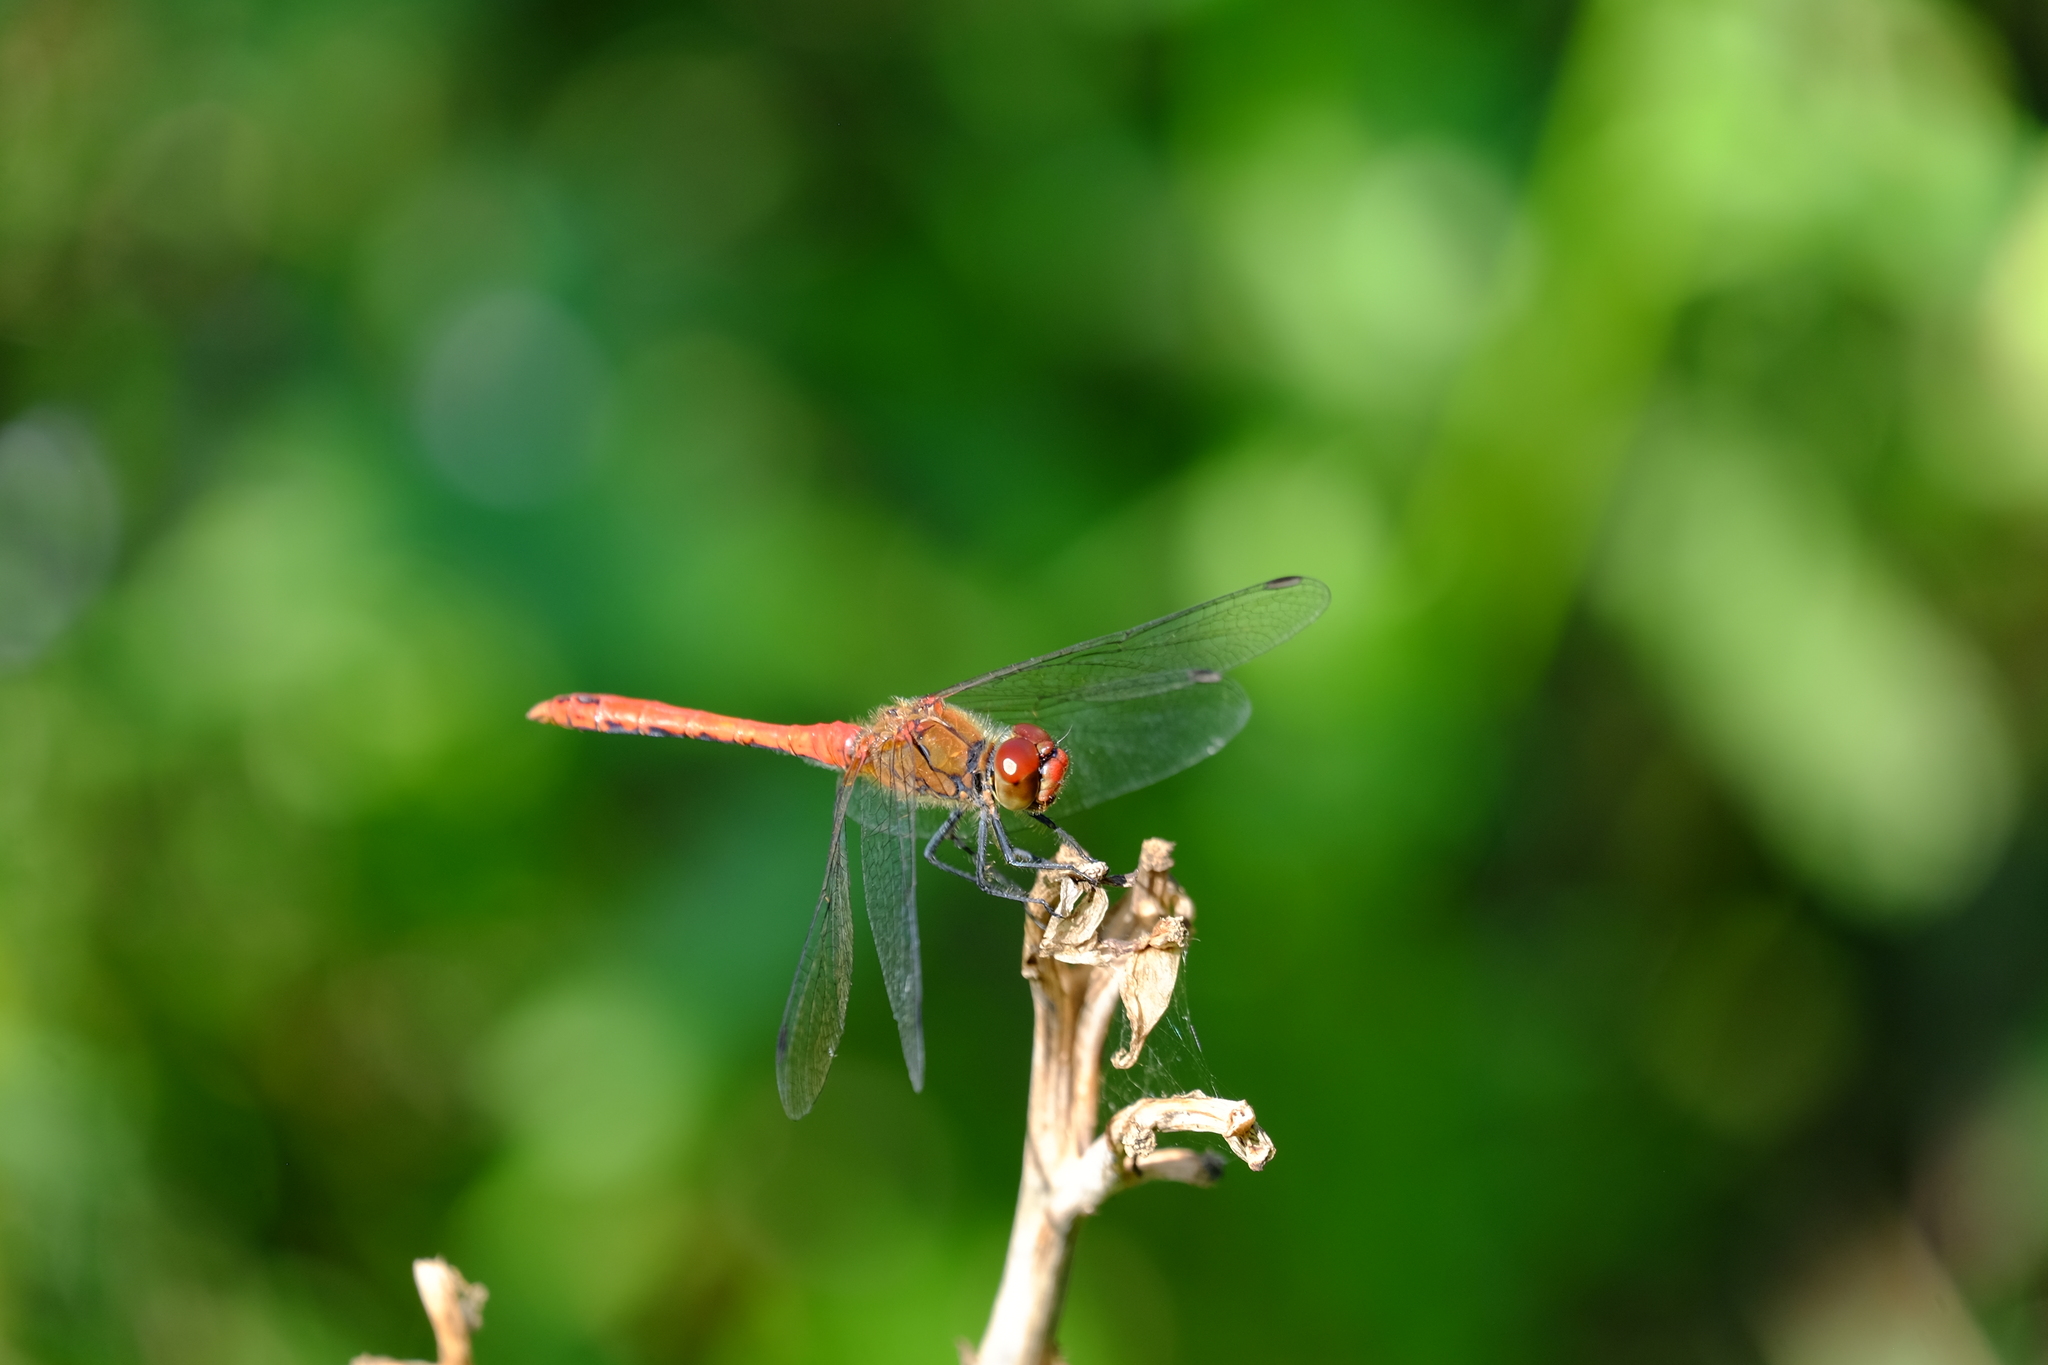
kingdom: Animalia
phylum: Arthropoda
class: Insecta
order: Odonata
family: Libellulidae
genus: Sympetrum
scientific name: Sympetrum sanguineum
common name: Ruddy darter
